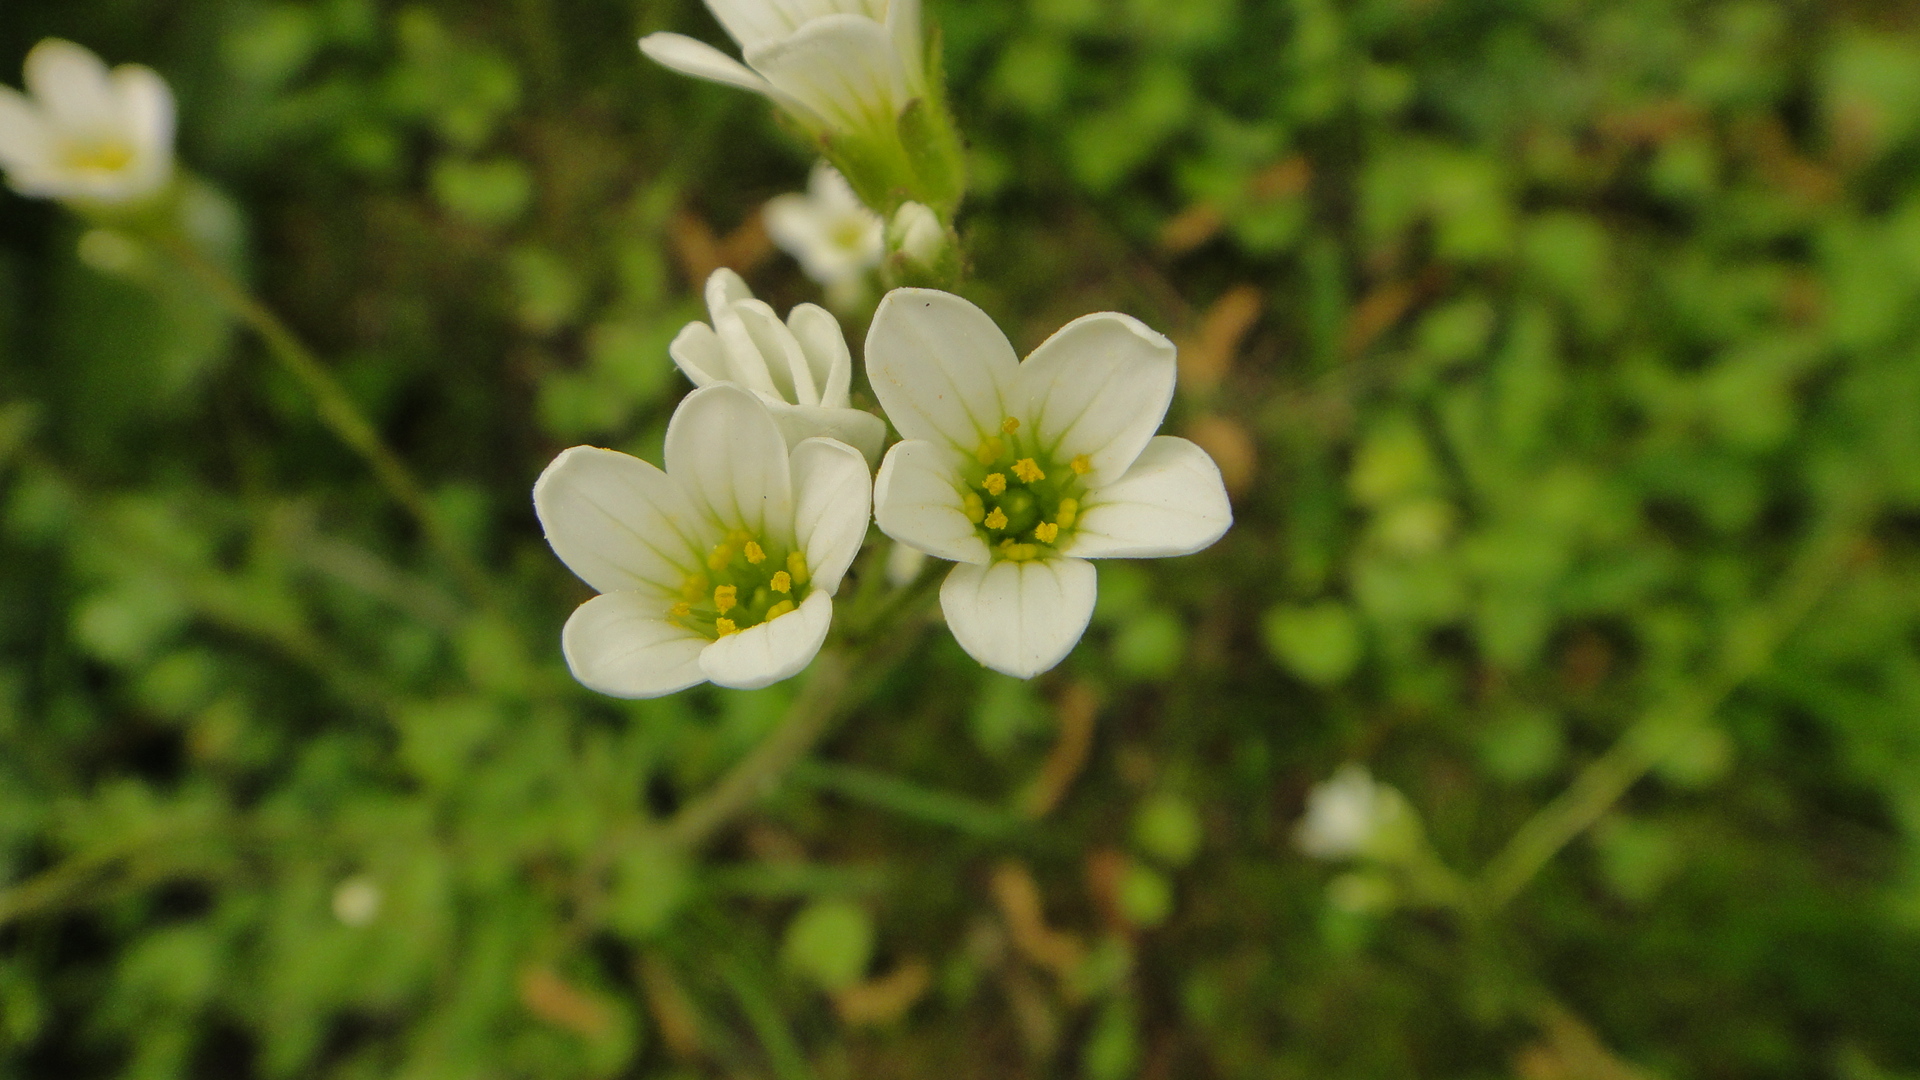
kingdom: Plantae
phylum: Tracheophyta
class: Magnoliopsida
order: Saxifragales
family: Saxifragaceae
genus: Saxifraga
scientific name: Saxifraga granulata
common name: Meadow saxifrage
